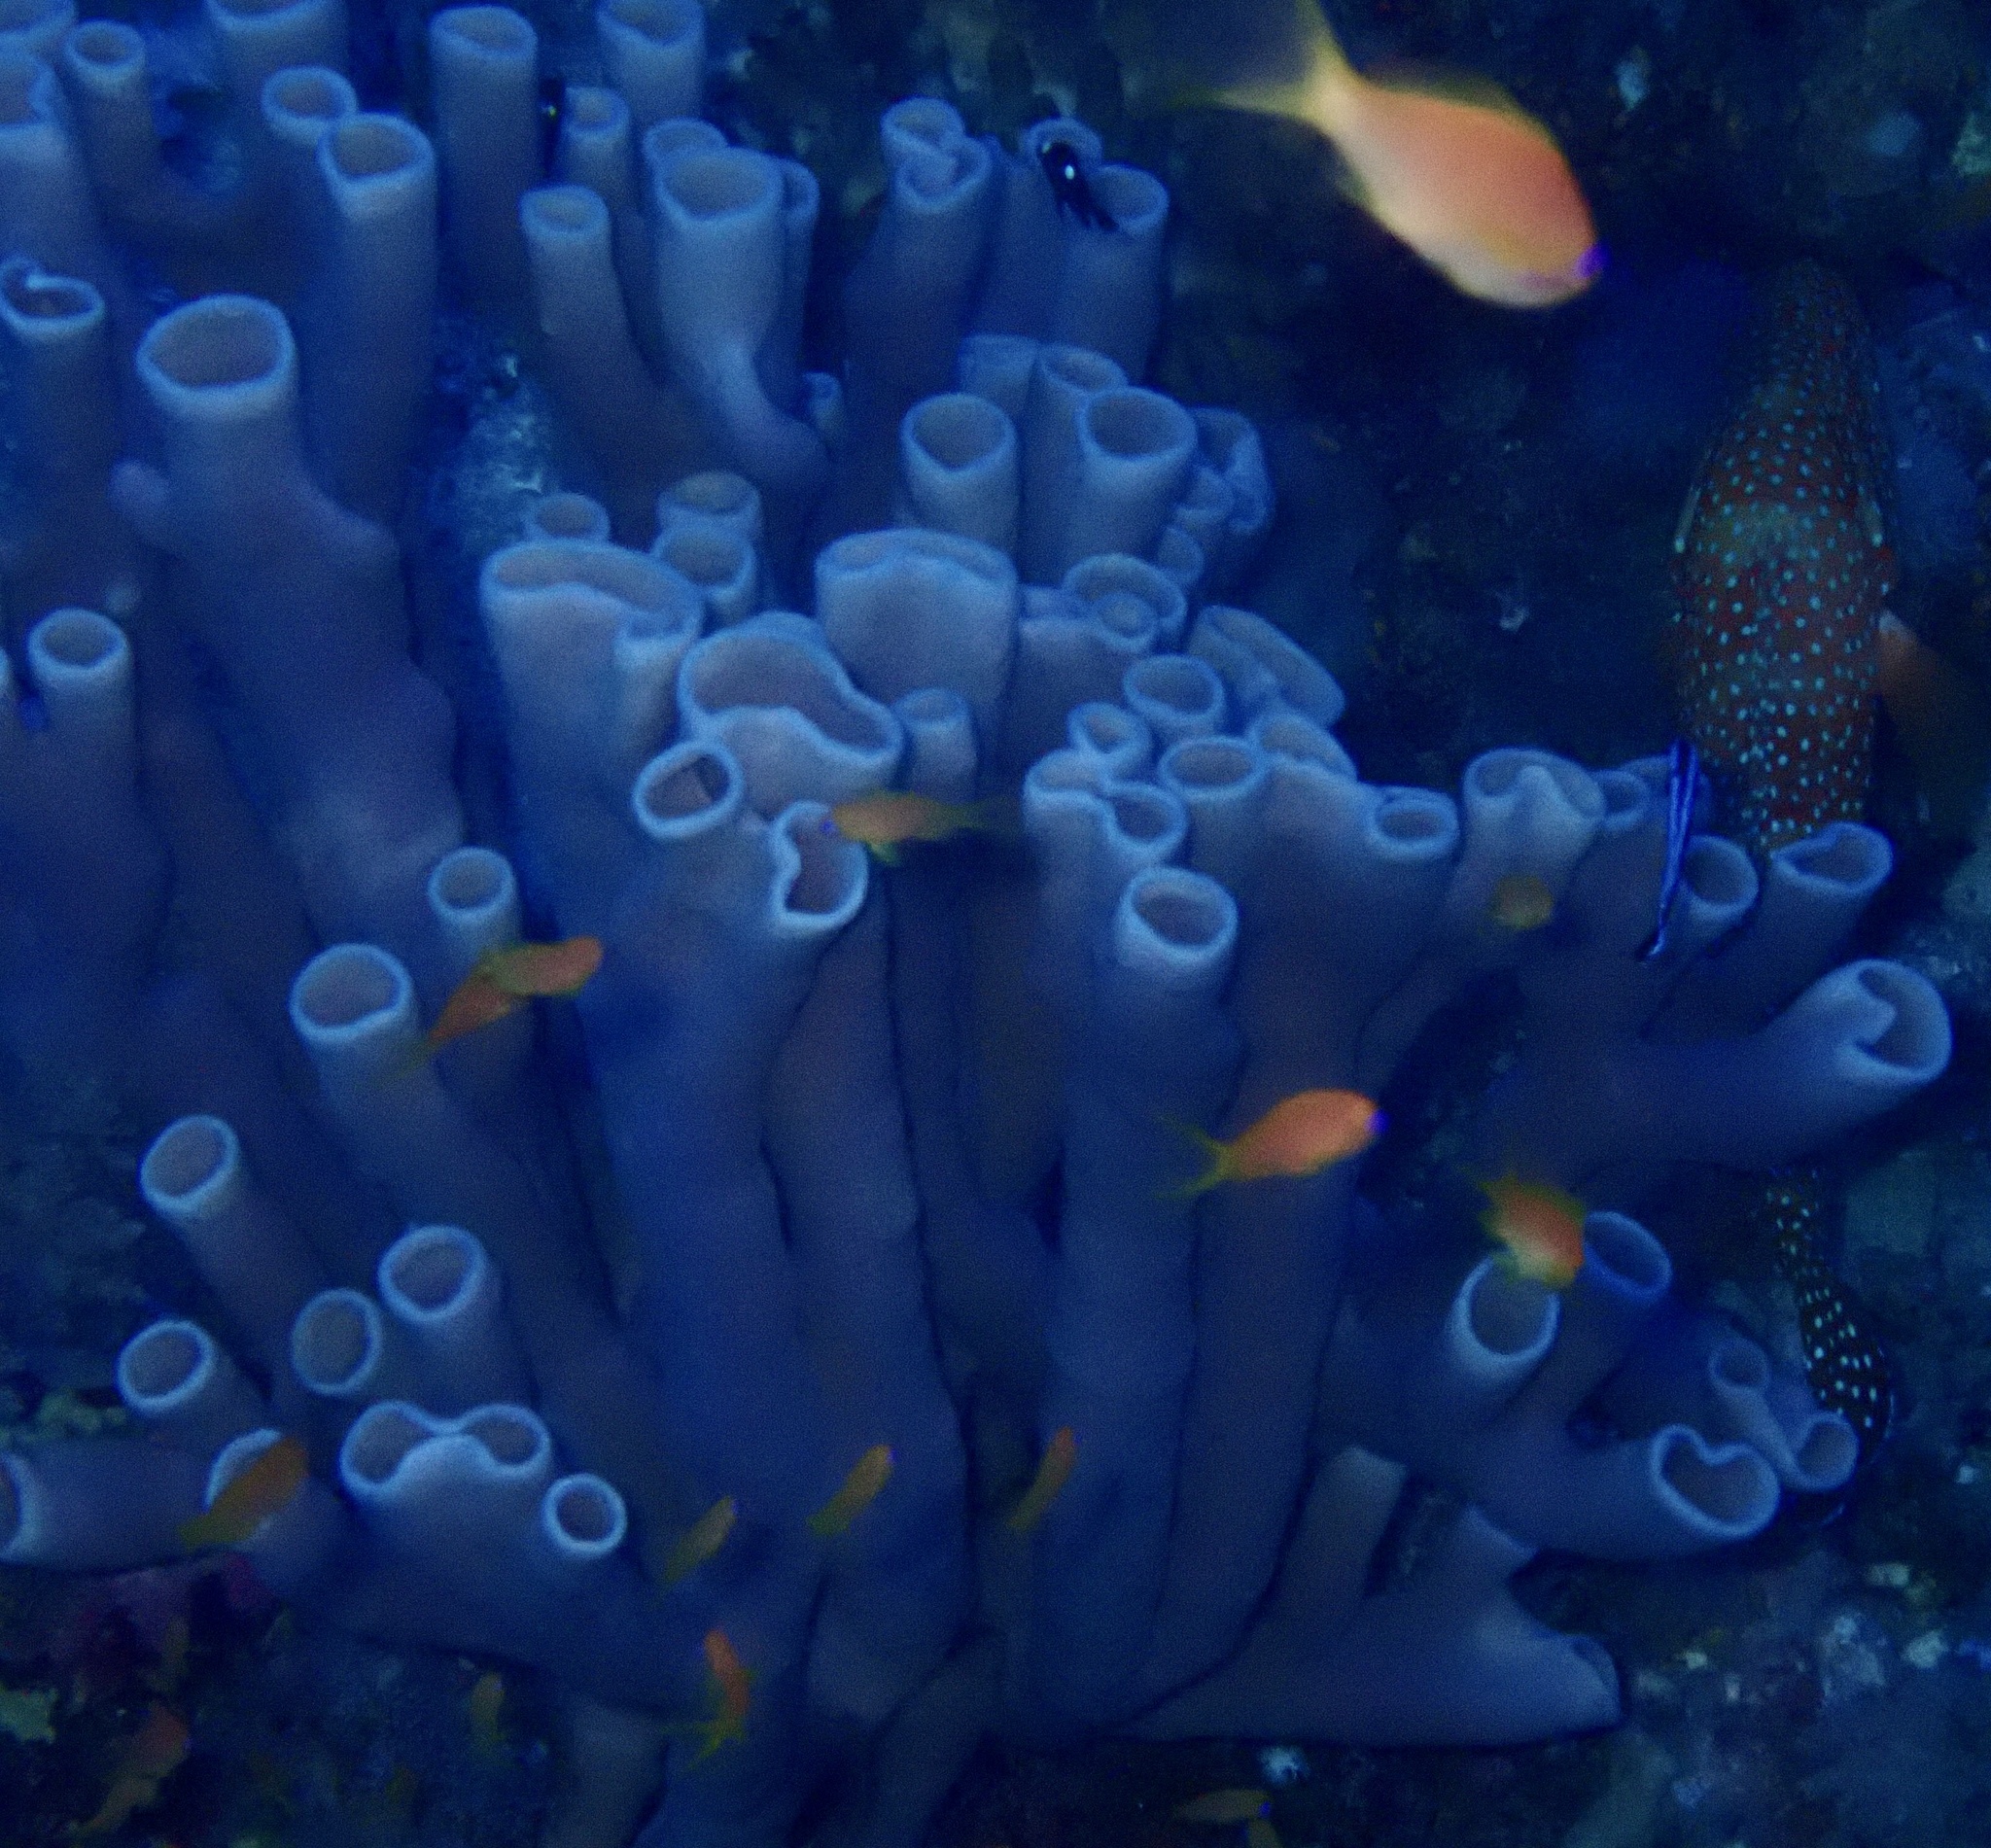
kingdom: Animalia
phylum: Porifera
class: Demospongiae
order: Haplosclerida
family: Callyspongiidae
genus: Callyspongia
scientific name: Callyspongia siphonella
